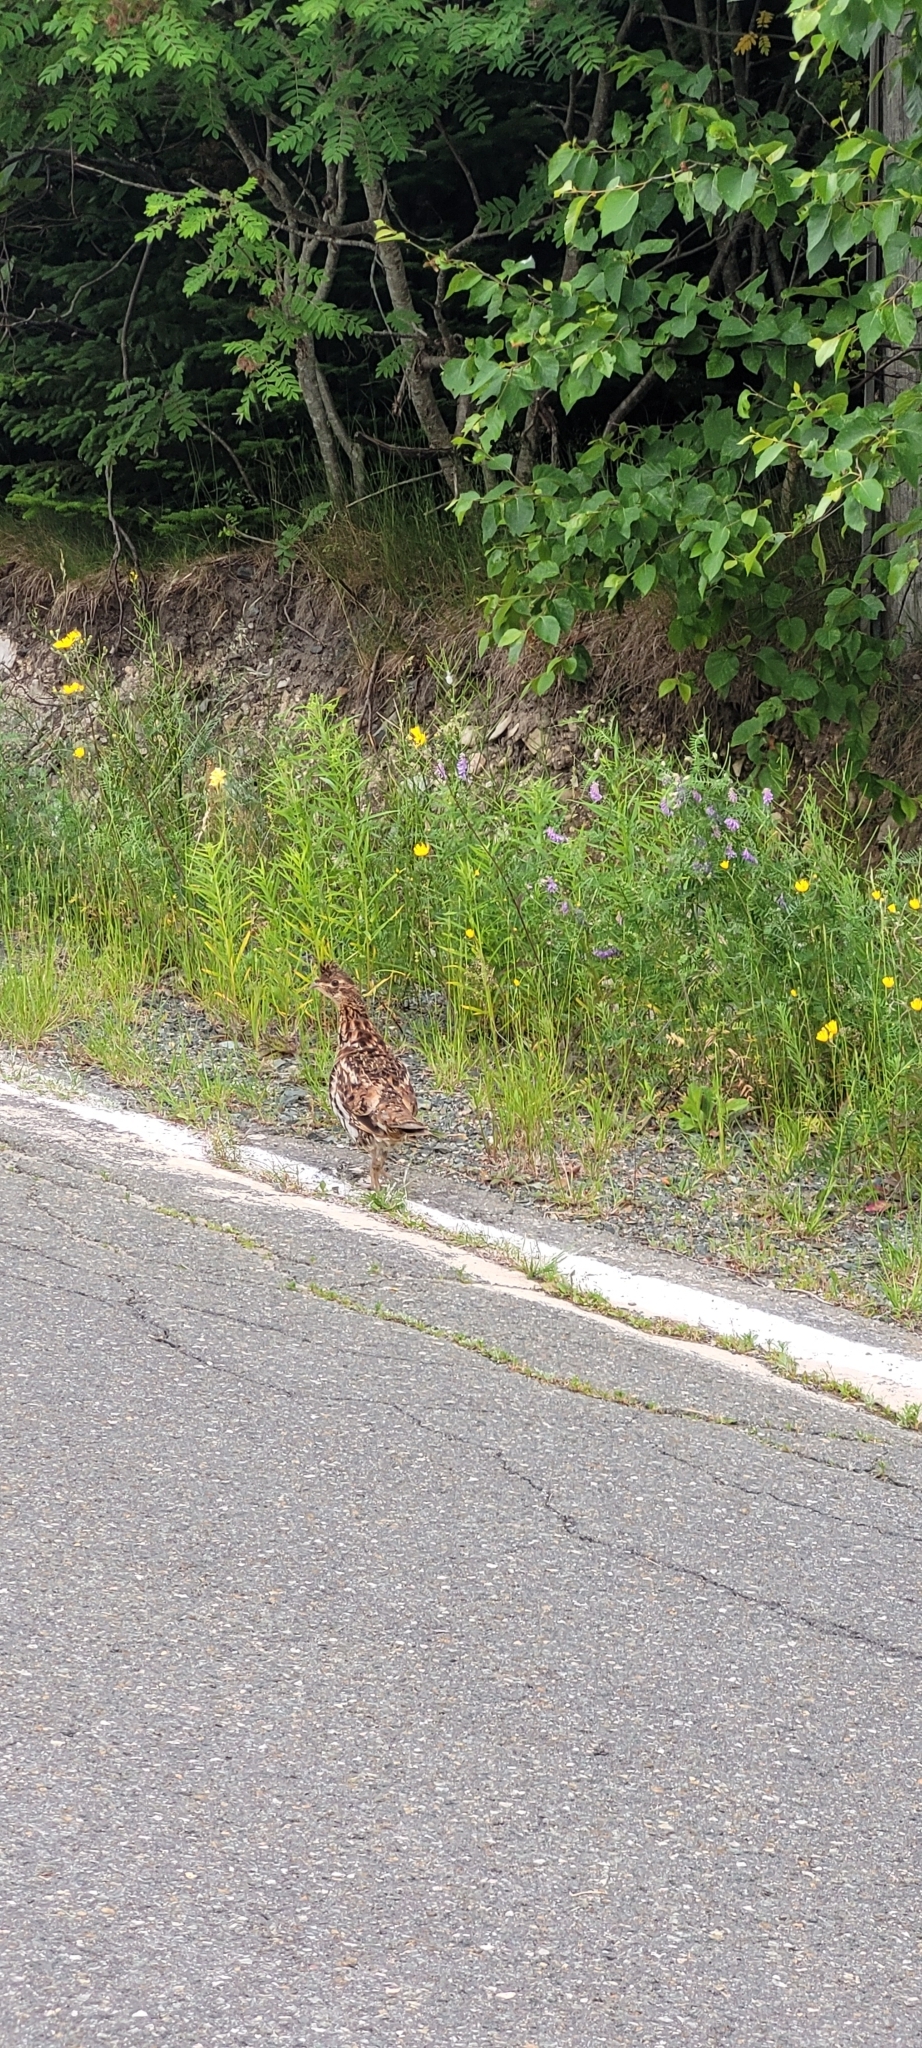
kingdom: Animalia
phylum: Chordata
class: Aves
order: Galliformes
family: Phasianidae
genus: Bonasa
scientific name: Bonasa umbellus
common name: Ruffed grouse
